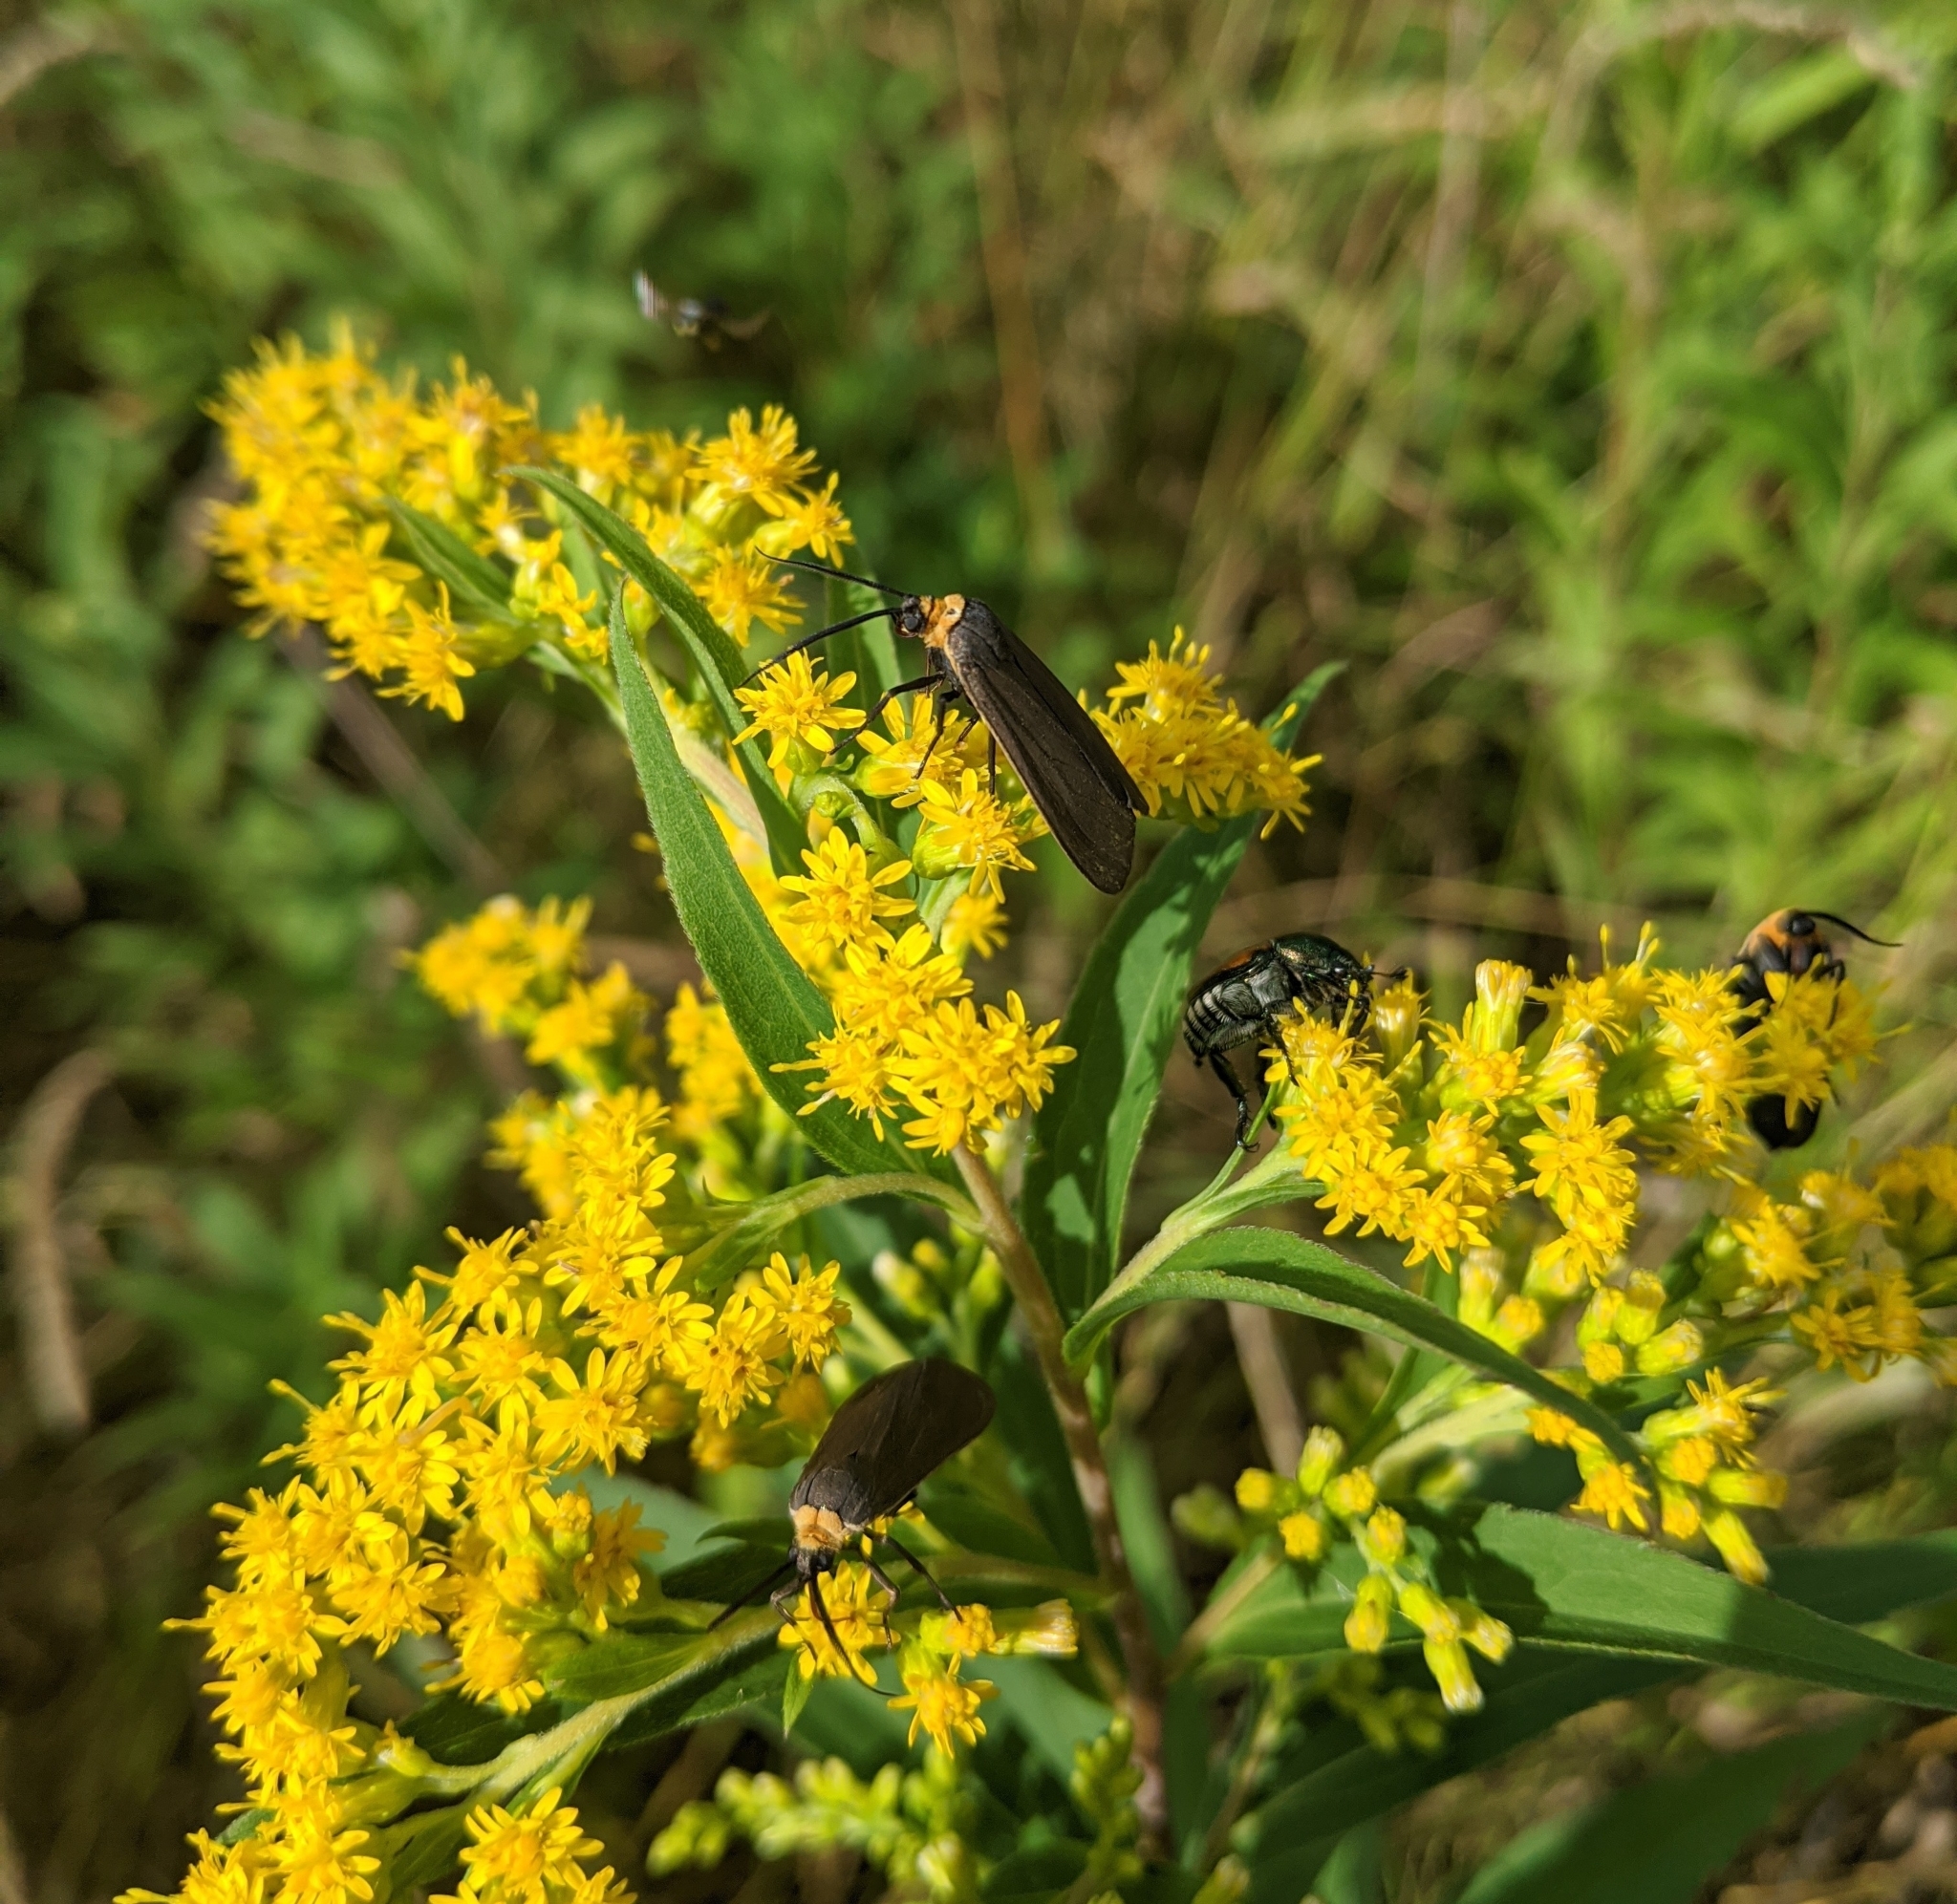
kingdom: Animalia
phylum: Arthropoda
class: Insecta
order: Lepidoptera
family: Erebidae
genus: Cisseps
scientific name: Cisseps fulvicollis
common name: Yellow-collared scape moth
